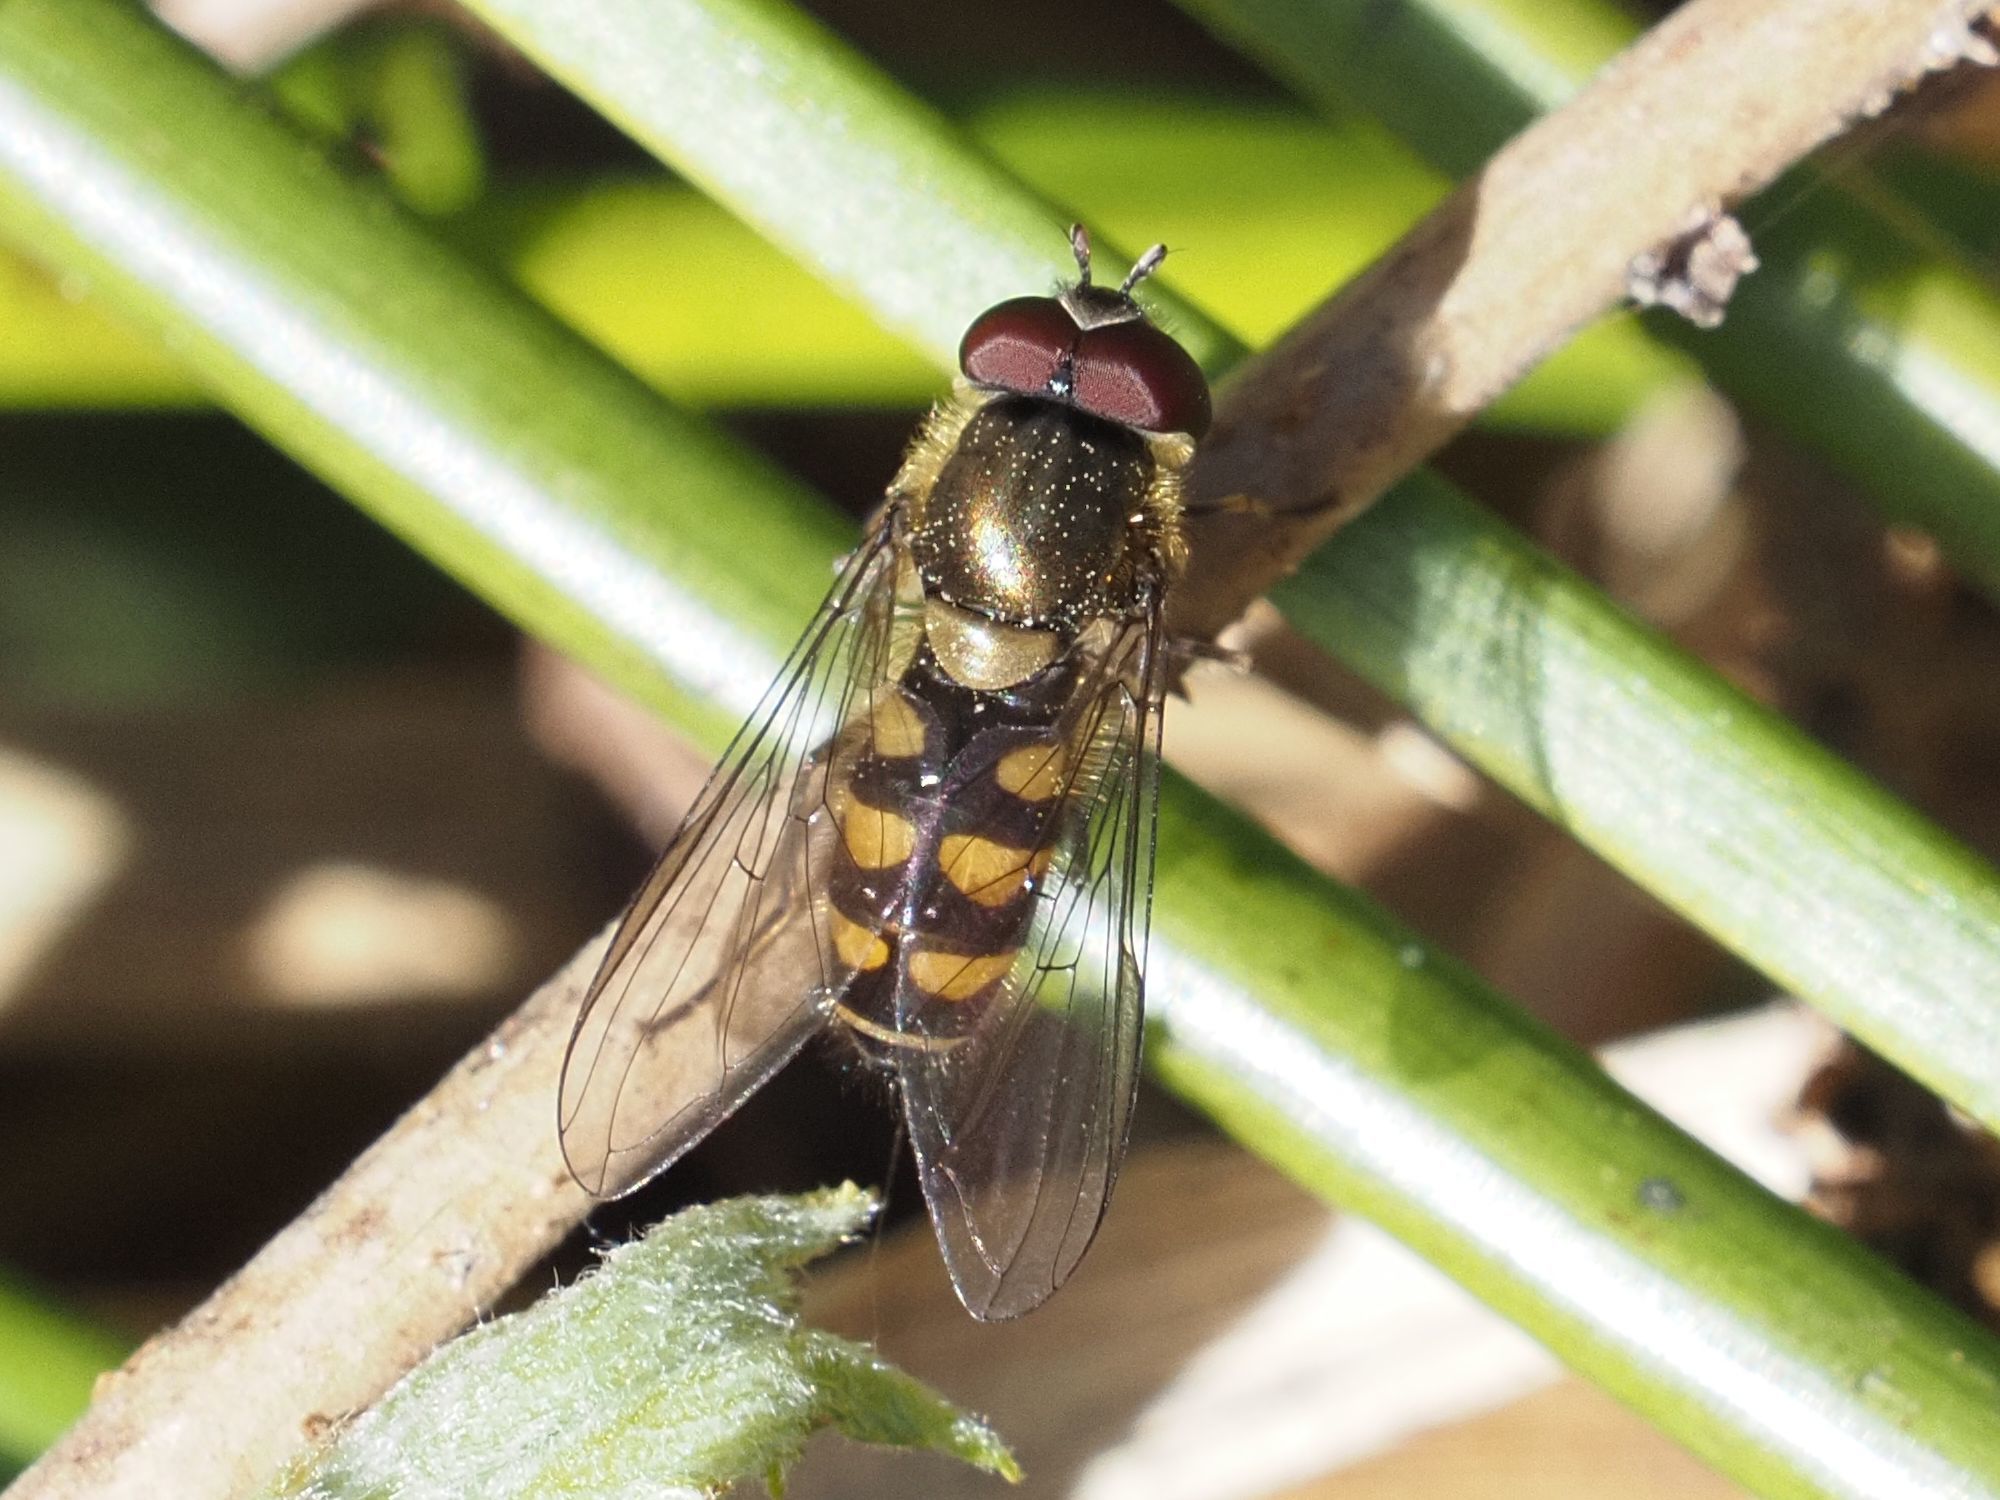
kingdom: Animalia
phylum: Arthropoda
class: Insecta
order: Diptera
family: Syrphidae
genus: Parasyrphus
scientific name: Parasyrphus punctulatus
